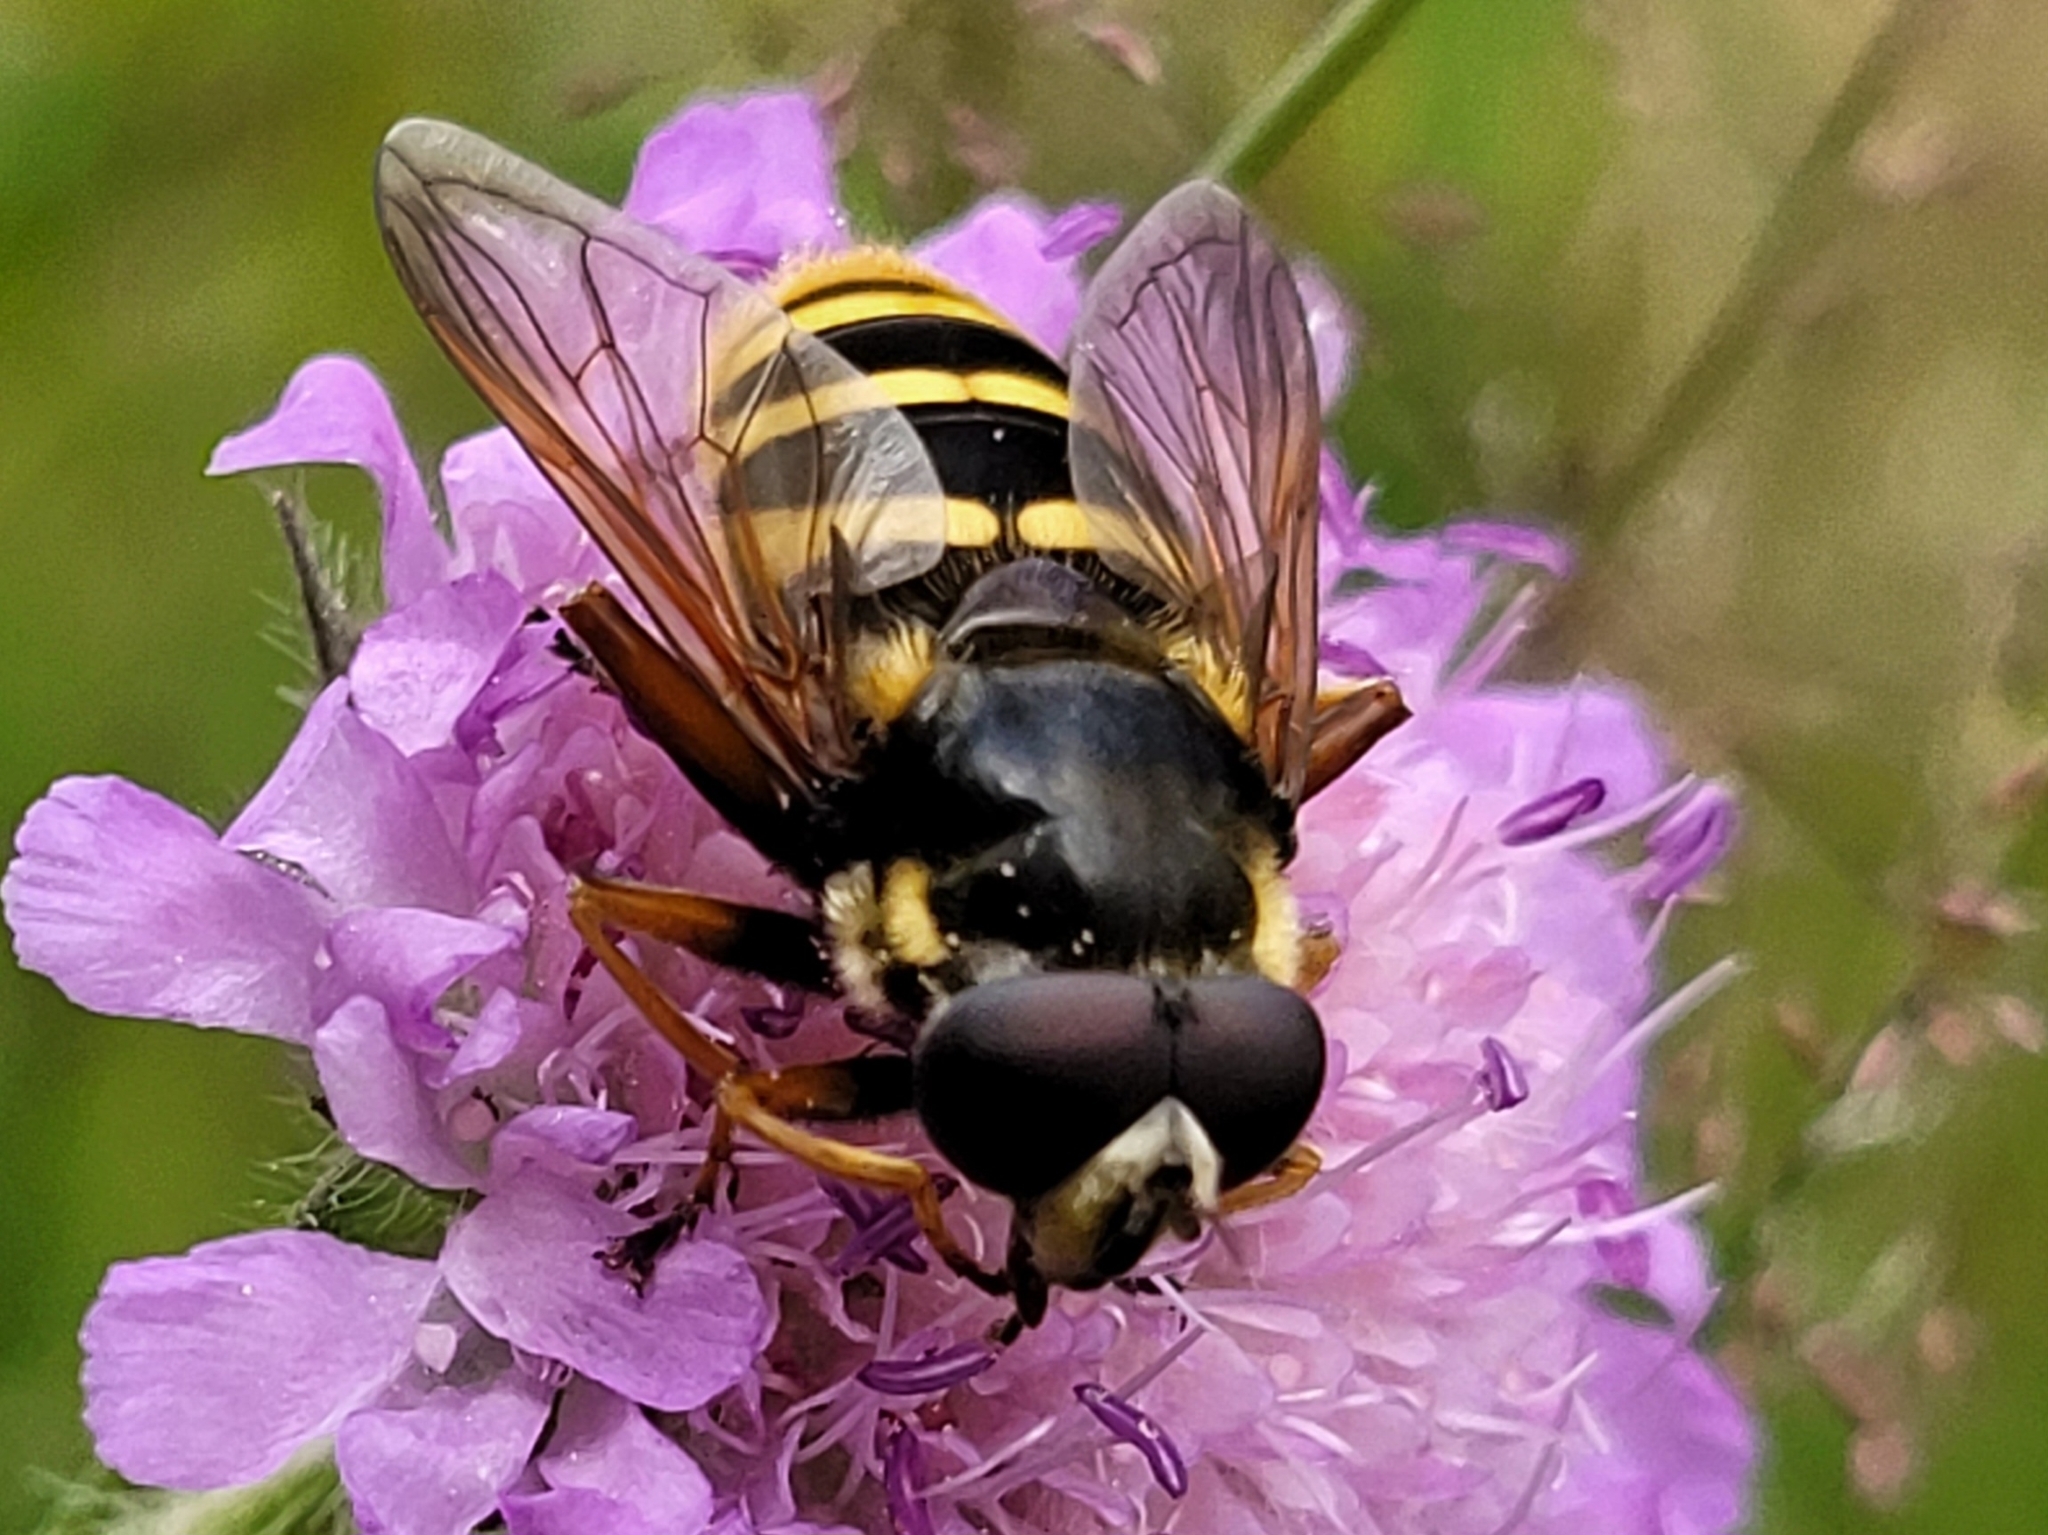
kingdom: Animalia
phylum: Arthropoda
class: Insecta
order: Diptera
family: Syrphidae
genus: Sericomyia
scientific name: Sericomyia silentis
